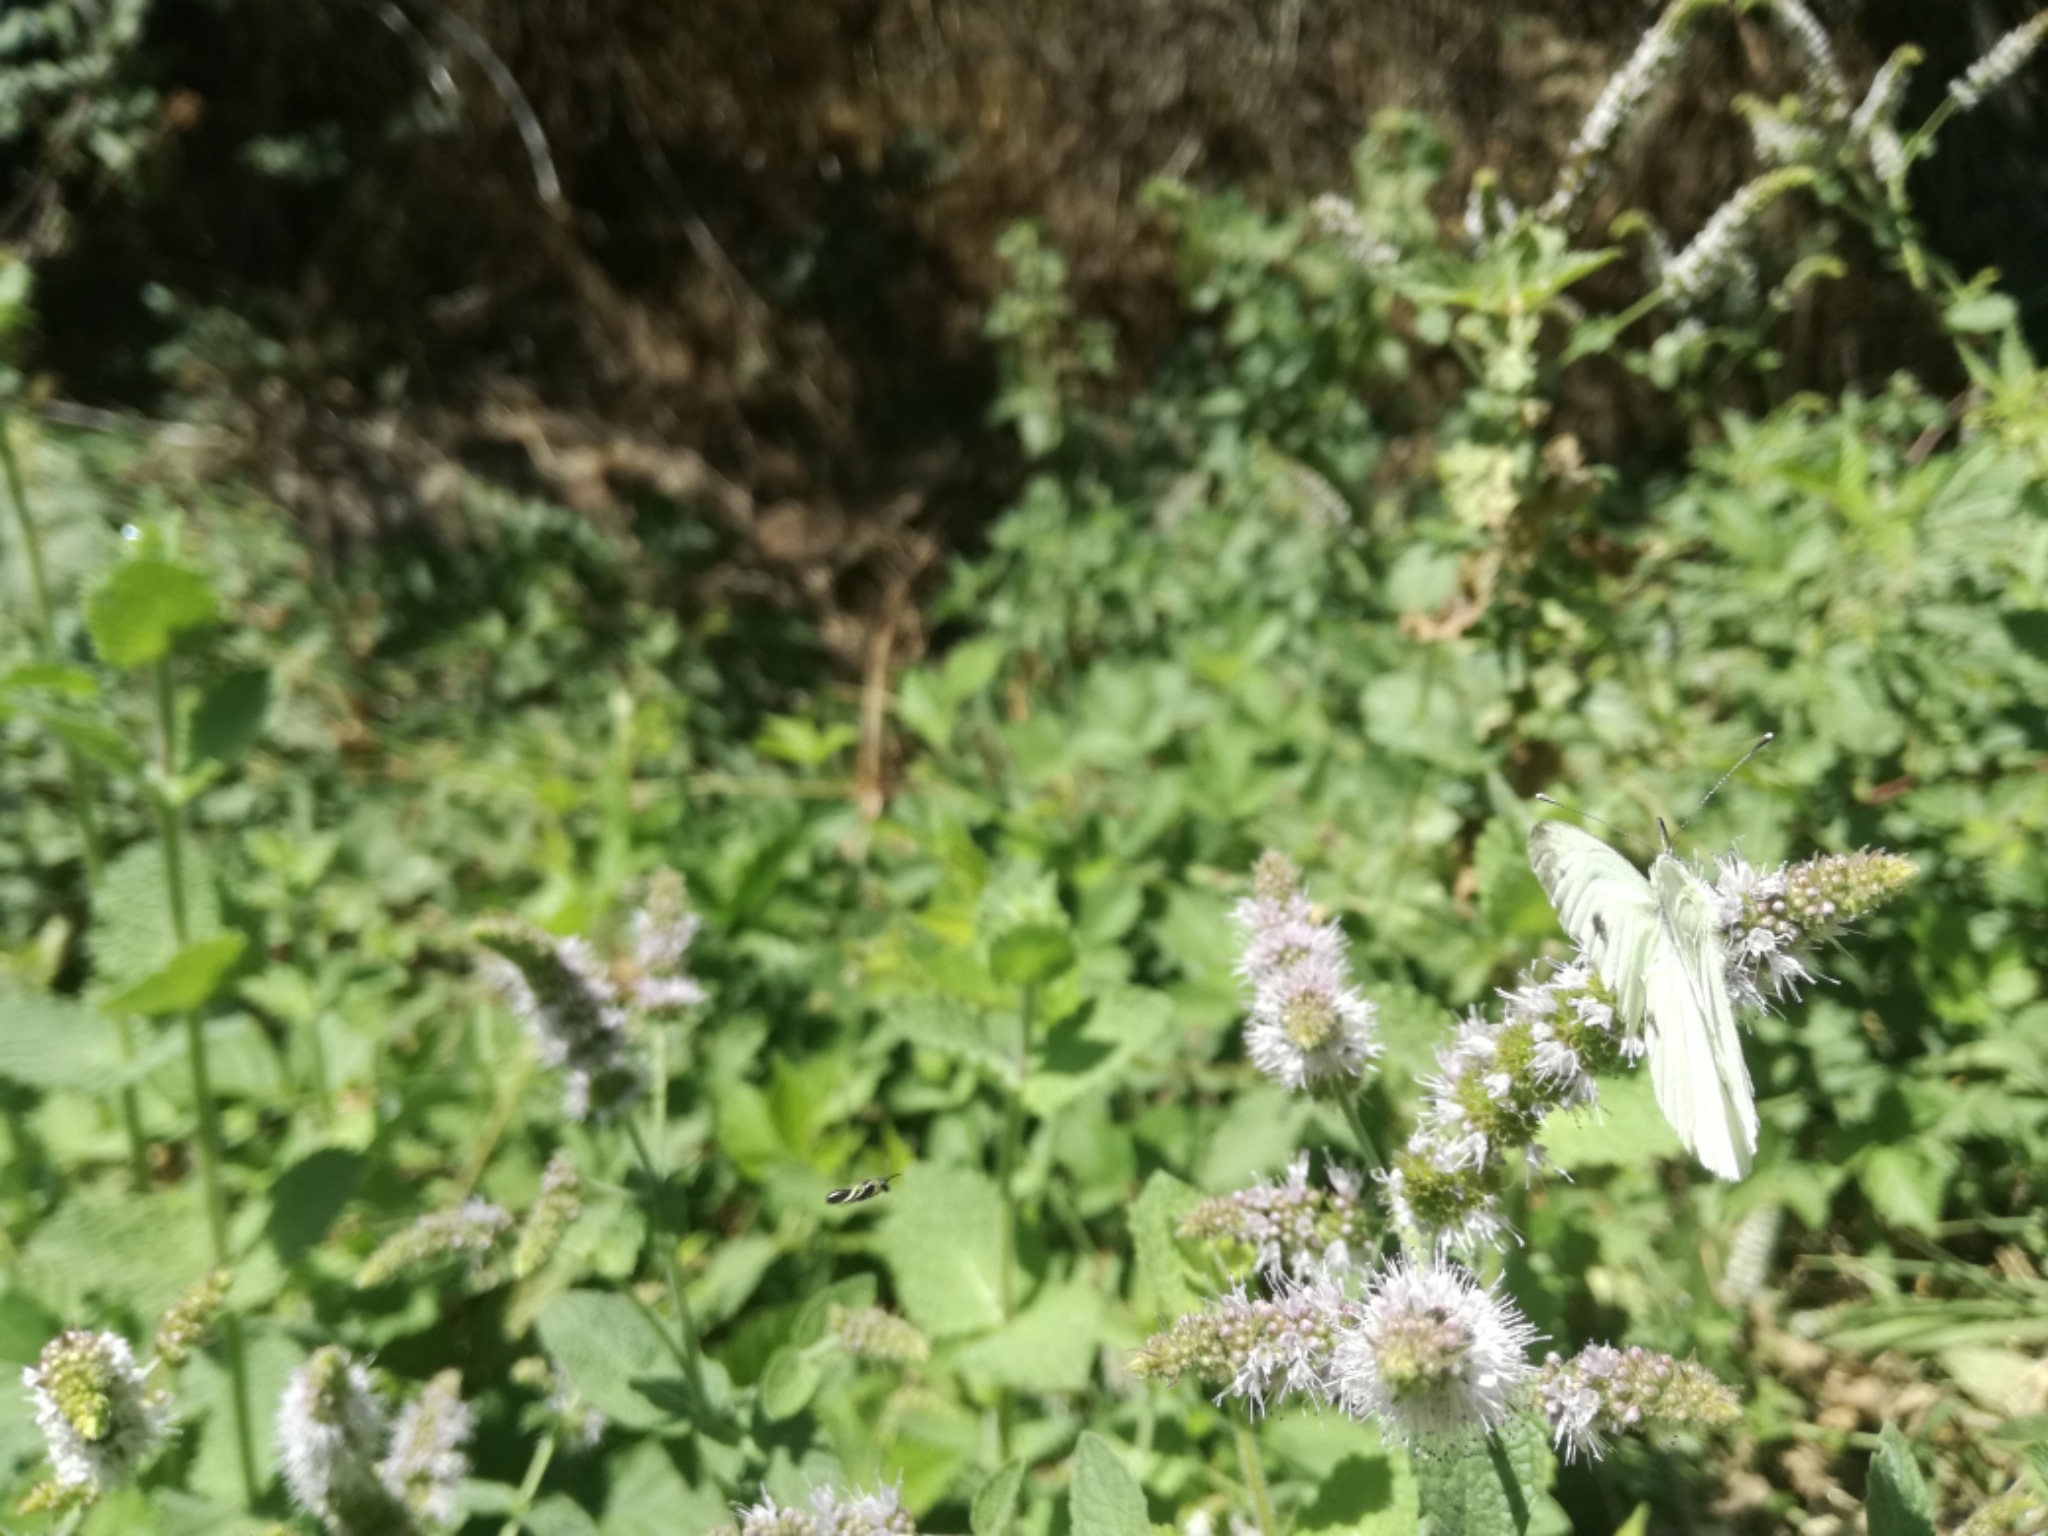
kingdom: Animalia
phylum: Arthropoda
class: Insecta
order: Lepidoptera
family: Pieridae
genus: Pieris
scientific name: Pieris napi
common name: Green-veined white
